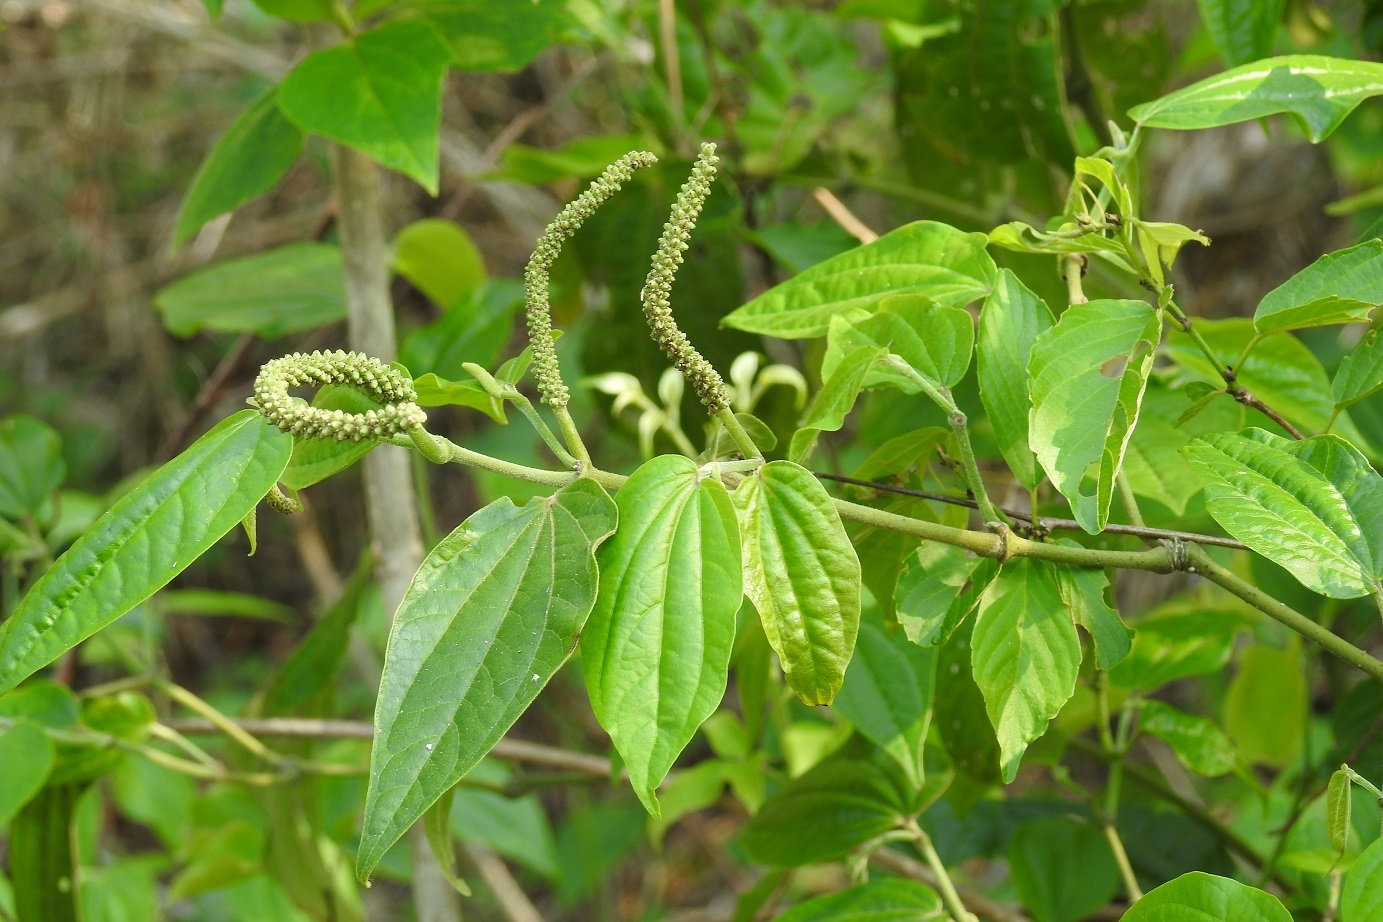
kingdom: Plantae
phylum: Tracheophyta
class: Magnoliopsida
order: Piperales
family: Piperaceae
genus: Piper
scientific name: Piper amalago
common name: Pepper-elder
